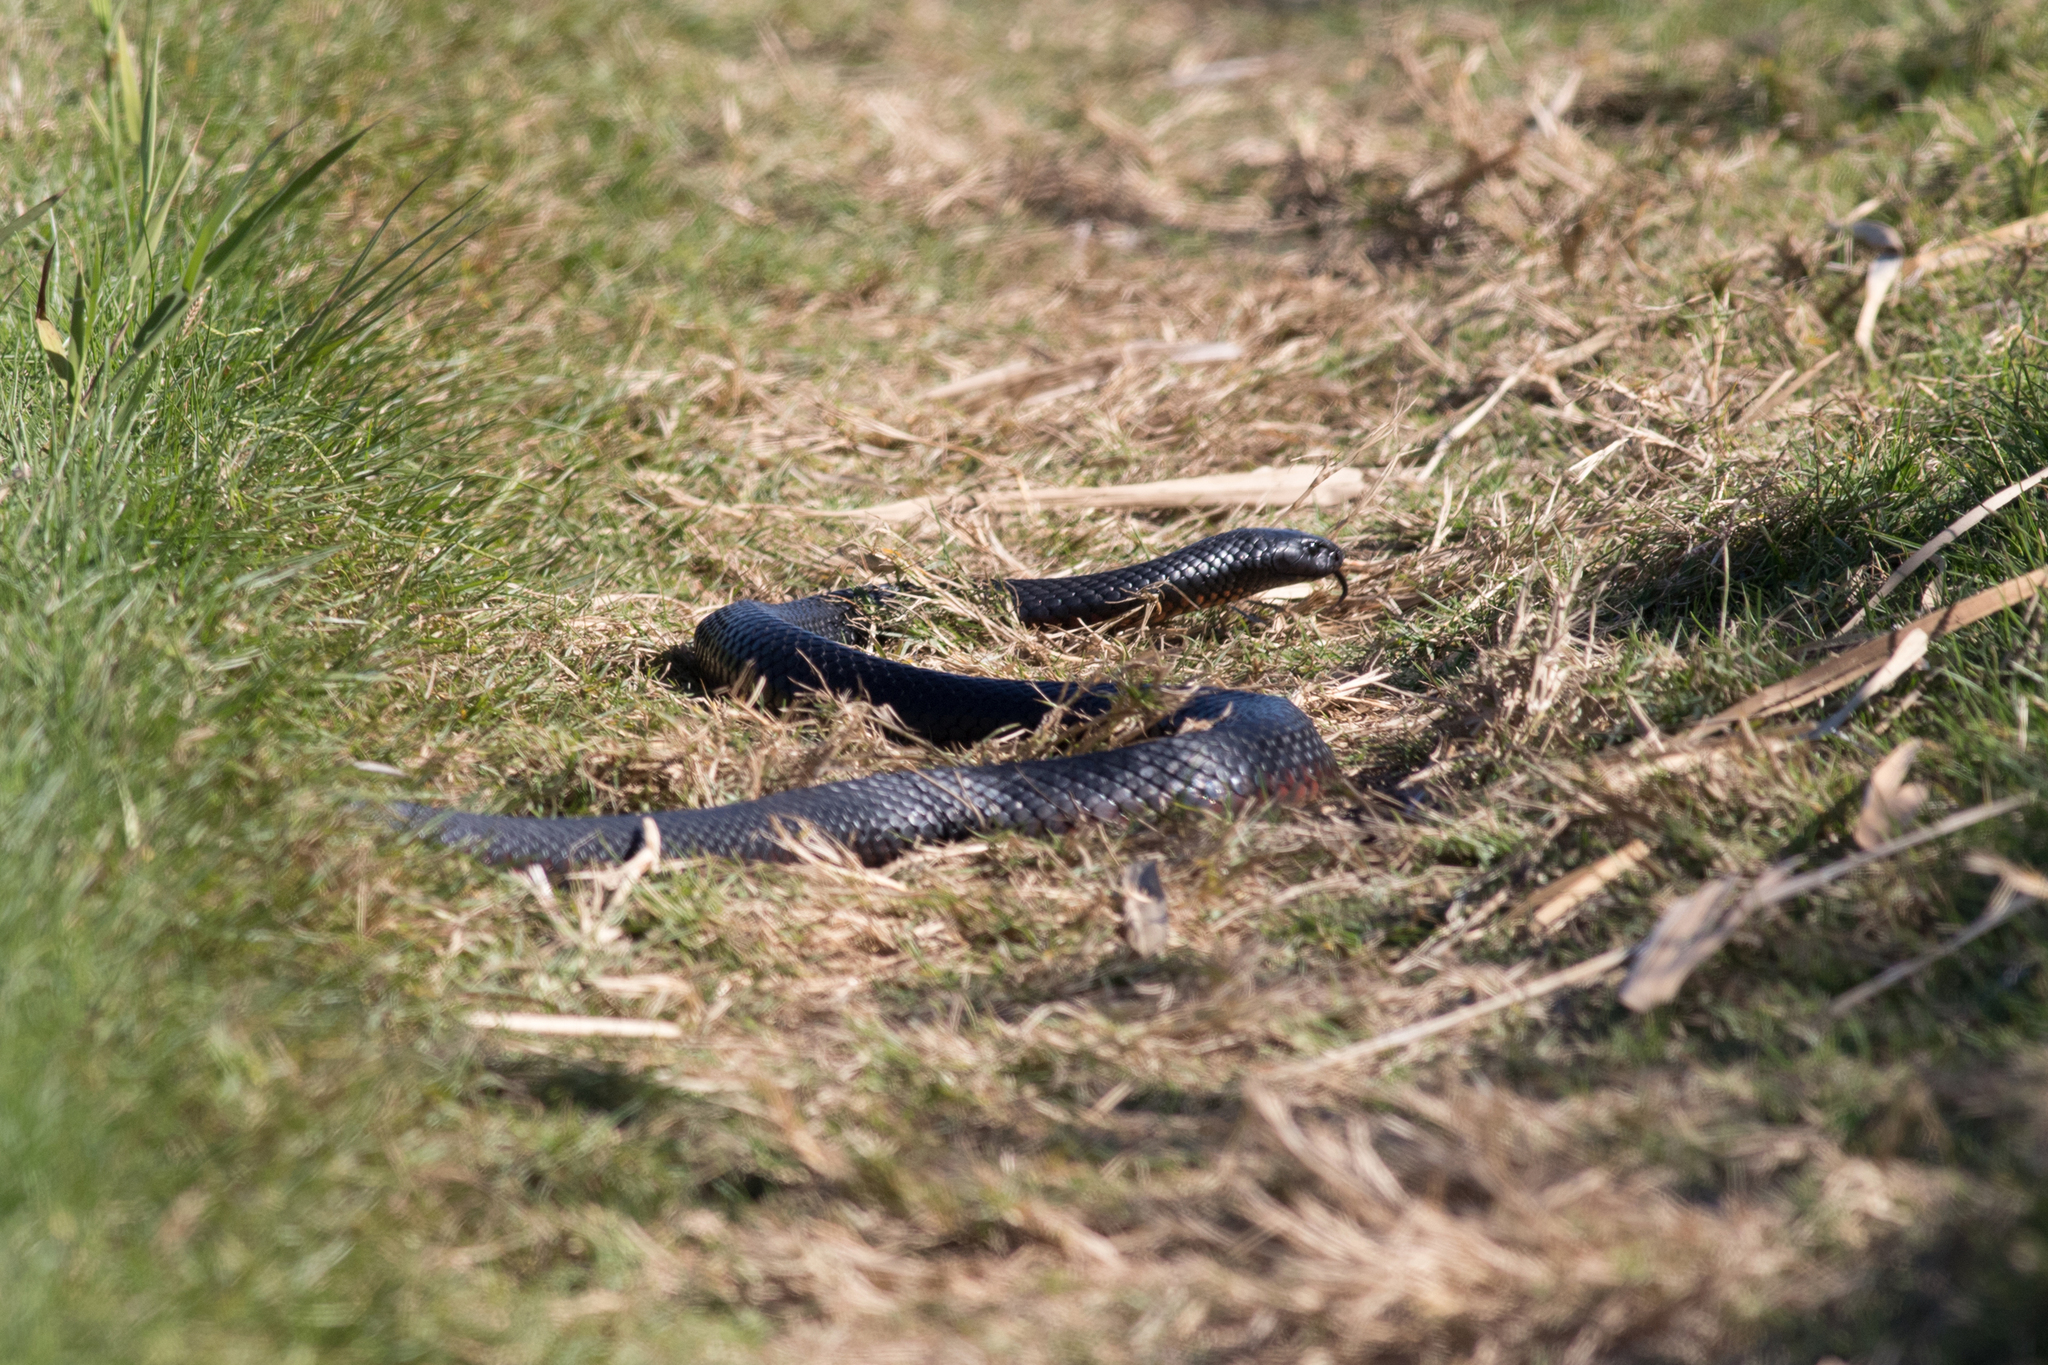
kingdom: Animalia
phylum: Chordata
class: Squamata
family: Elapidae
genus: Pseudechis
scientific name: Pseudechis porphyriacus
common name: Australian black snake
